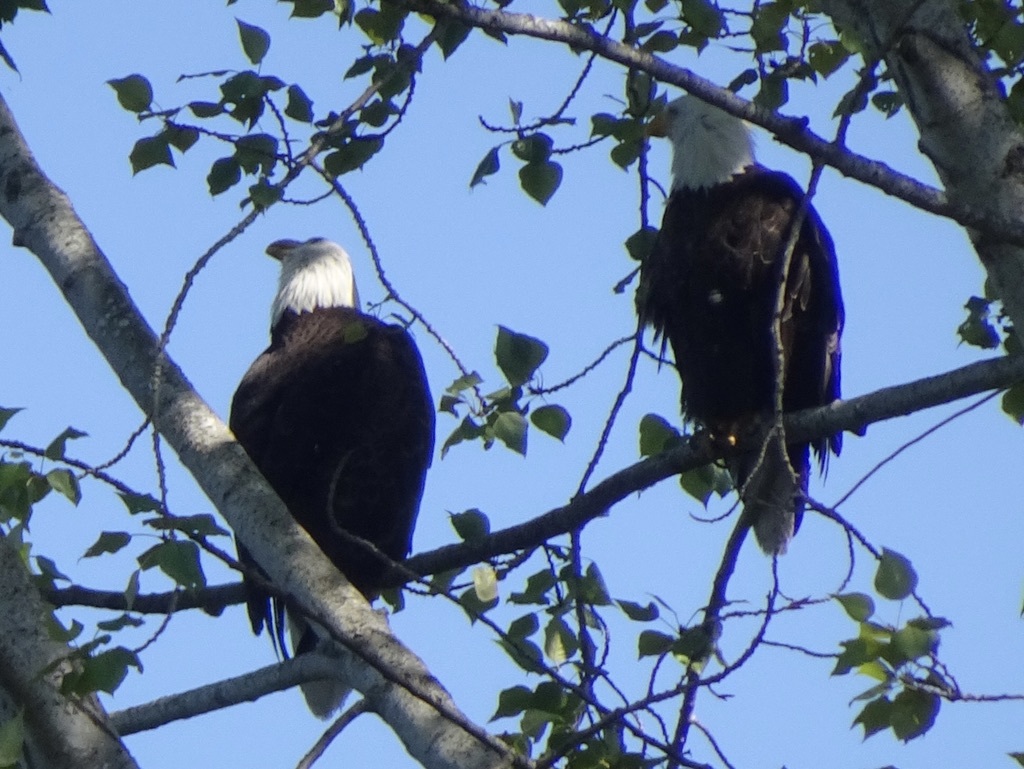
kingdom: Animalia
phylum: Chordata
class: Aves
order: Accipitriformes
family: Accipitridae
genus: Haliaeetus
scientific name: Haliaeetus leucocephalus
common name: Bald eagle
